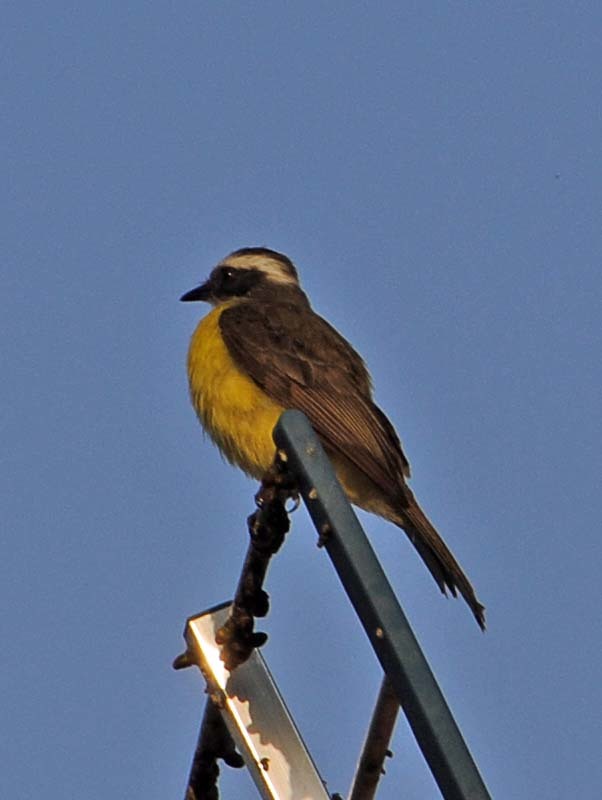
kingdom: Animalia
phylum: Chordata
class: Aves
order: Passeriformes
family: Tyrannidae
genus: Myiozetetes
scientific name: Myiozetetes similis
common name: Social flycatcher
